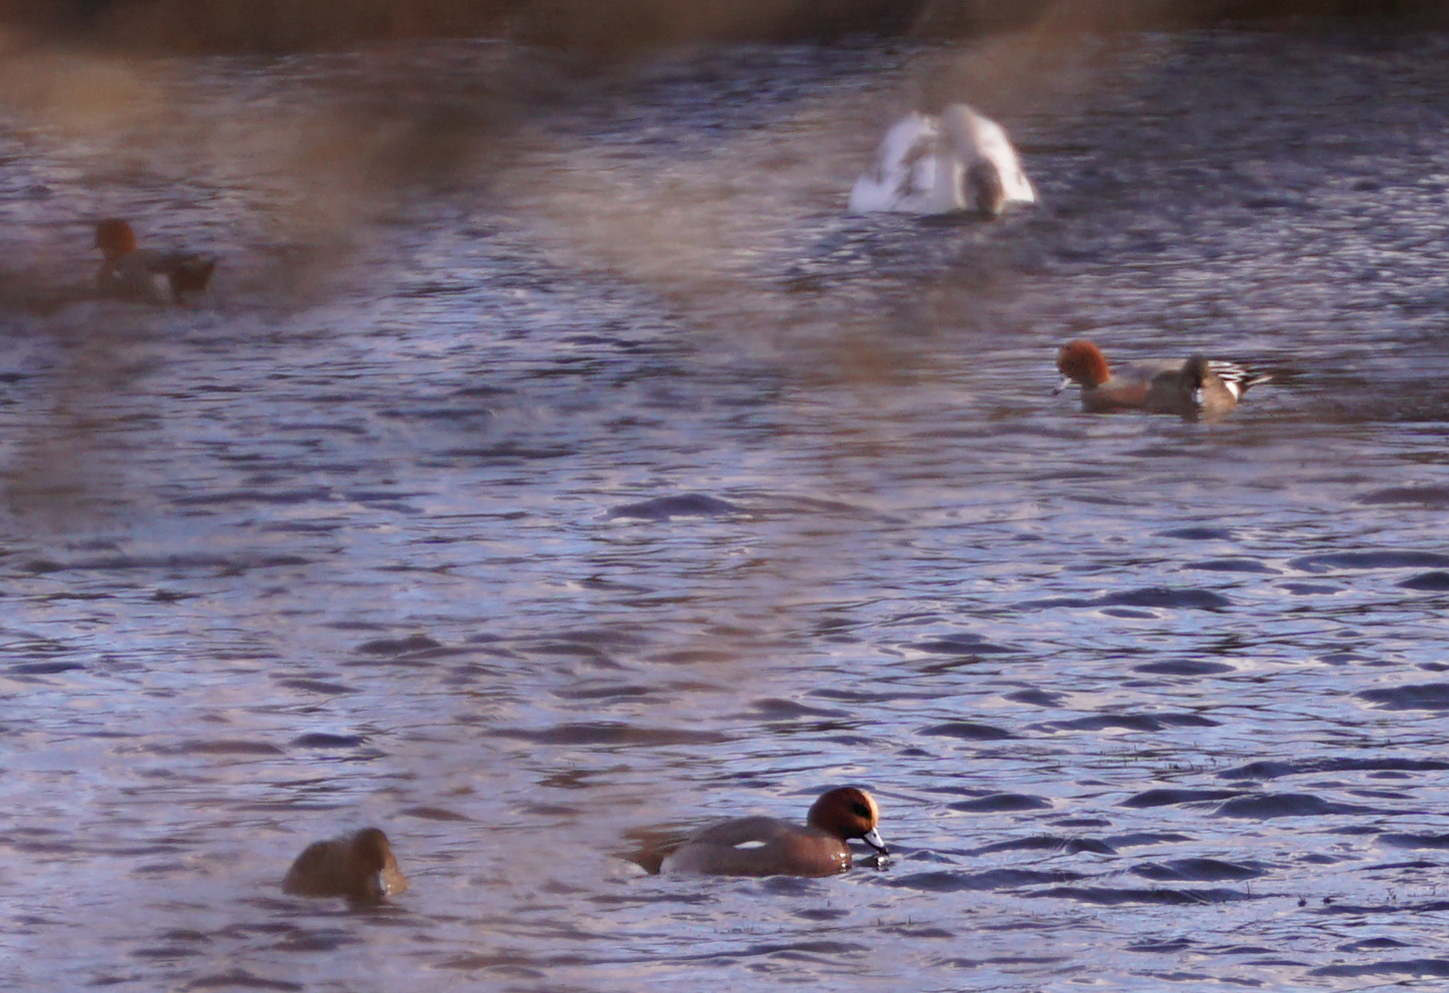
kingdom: Animalia
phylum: Chordata
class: Aves
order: Anseriformes
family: Anatidae
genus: Mareca
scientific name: Mareca penelope
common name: Eurasian wigeon
